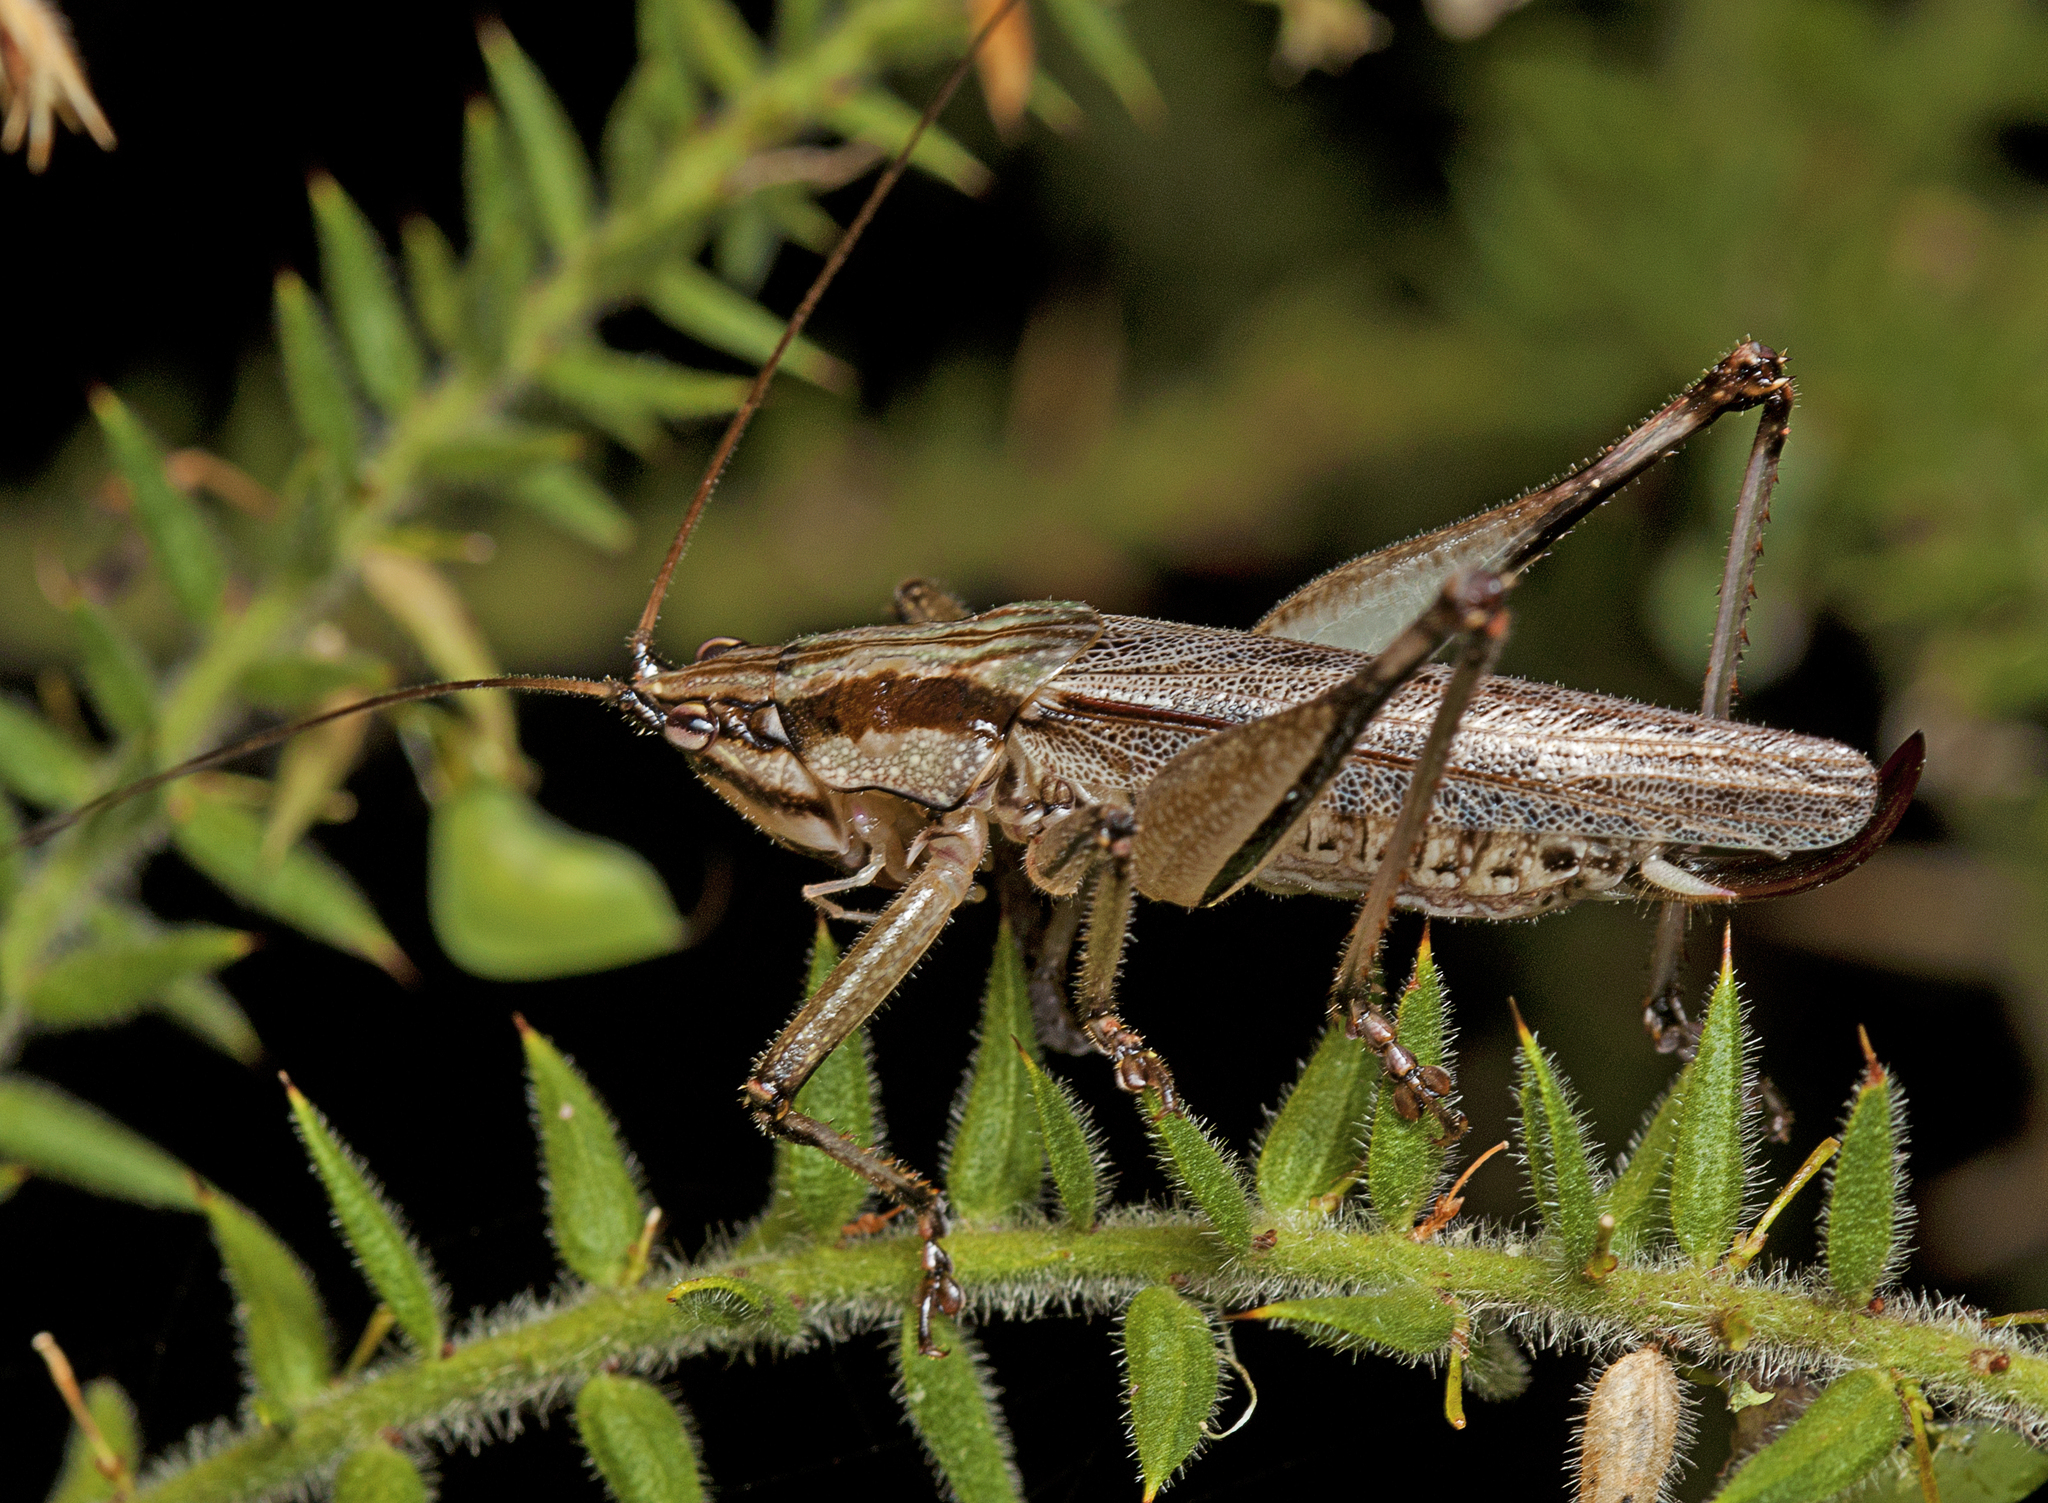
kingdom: Animalia
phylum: Arthropoda
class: Insecta
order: Orthoptera
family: Tettigoniidae
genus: Larifugagraecia
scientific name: Larifugagraecia spuria
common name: False nicsara
